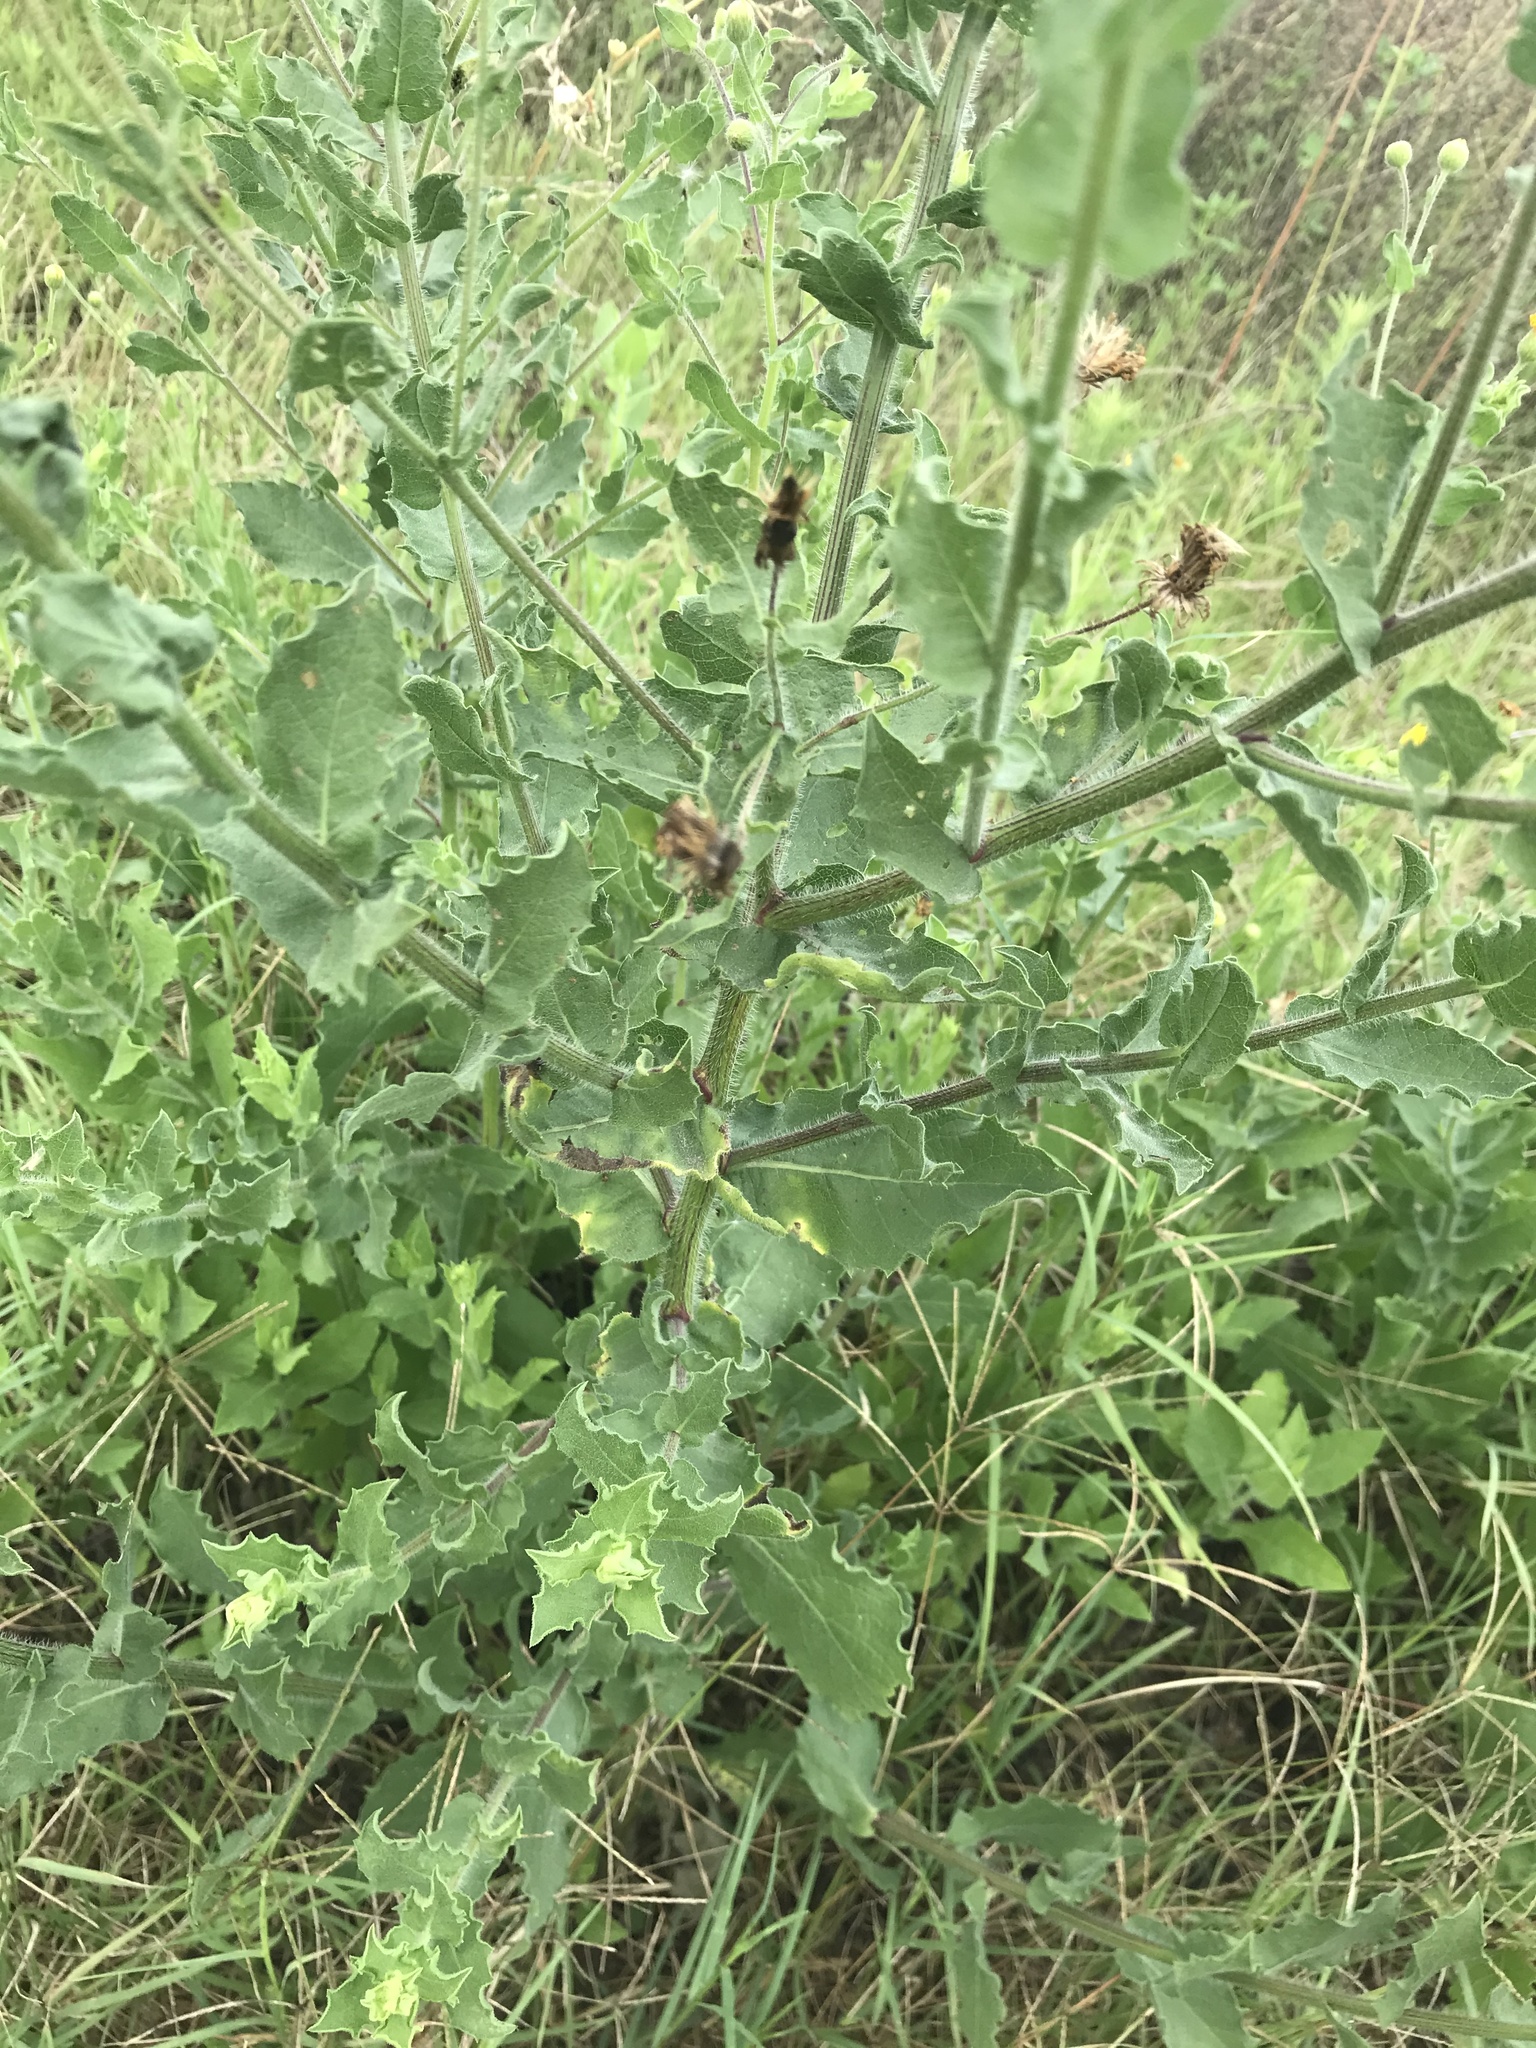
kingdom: Plantae
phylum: Tracheophyta
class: Magnoliopsida
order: Asterales
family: Asteraceae
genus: Heterotheca
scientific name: Heterotheca subaxillaris
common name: Camphorweed
